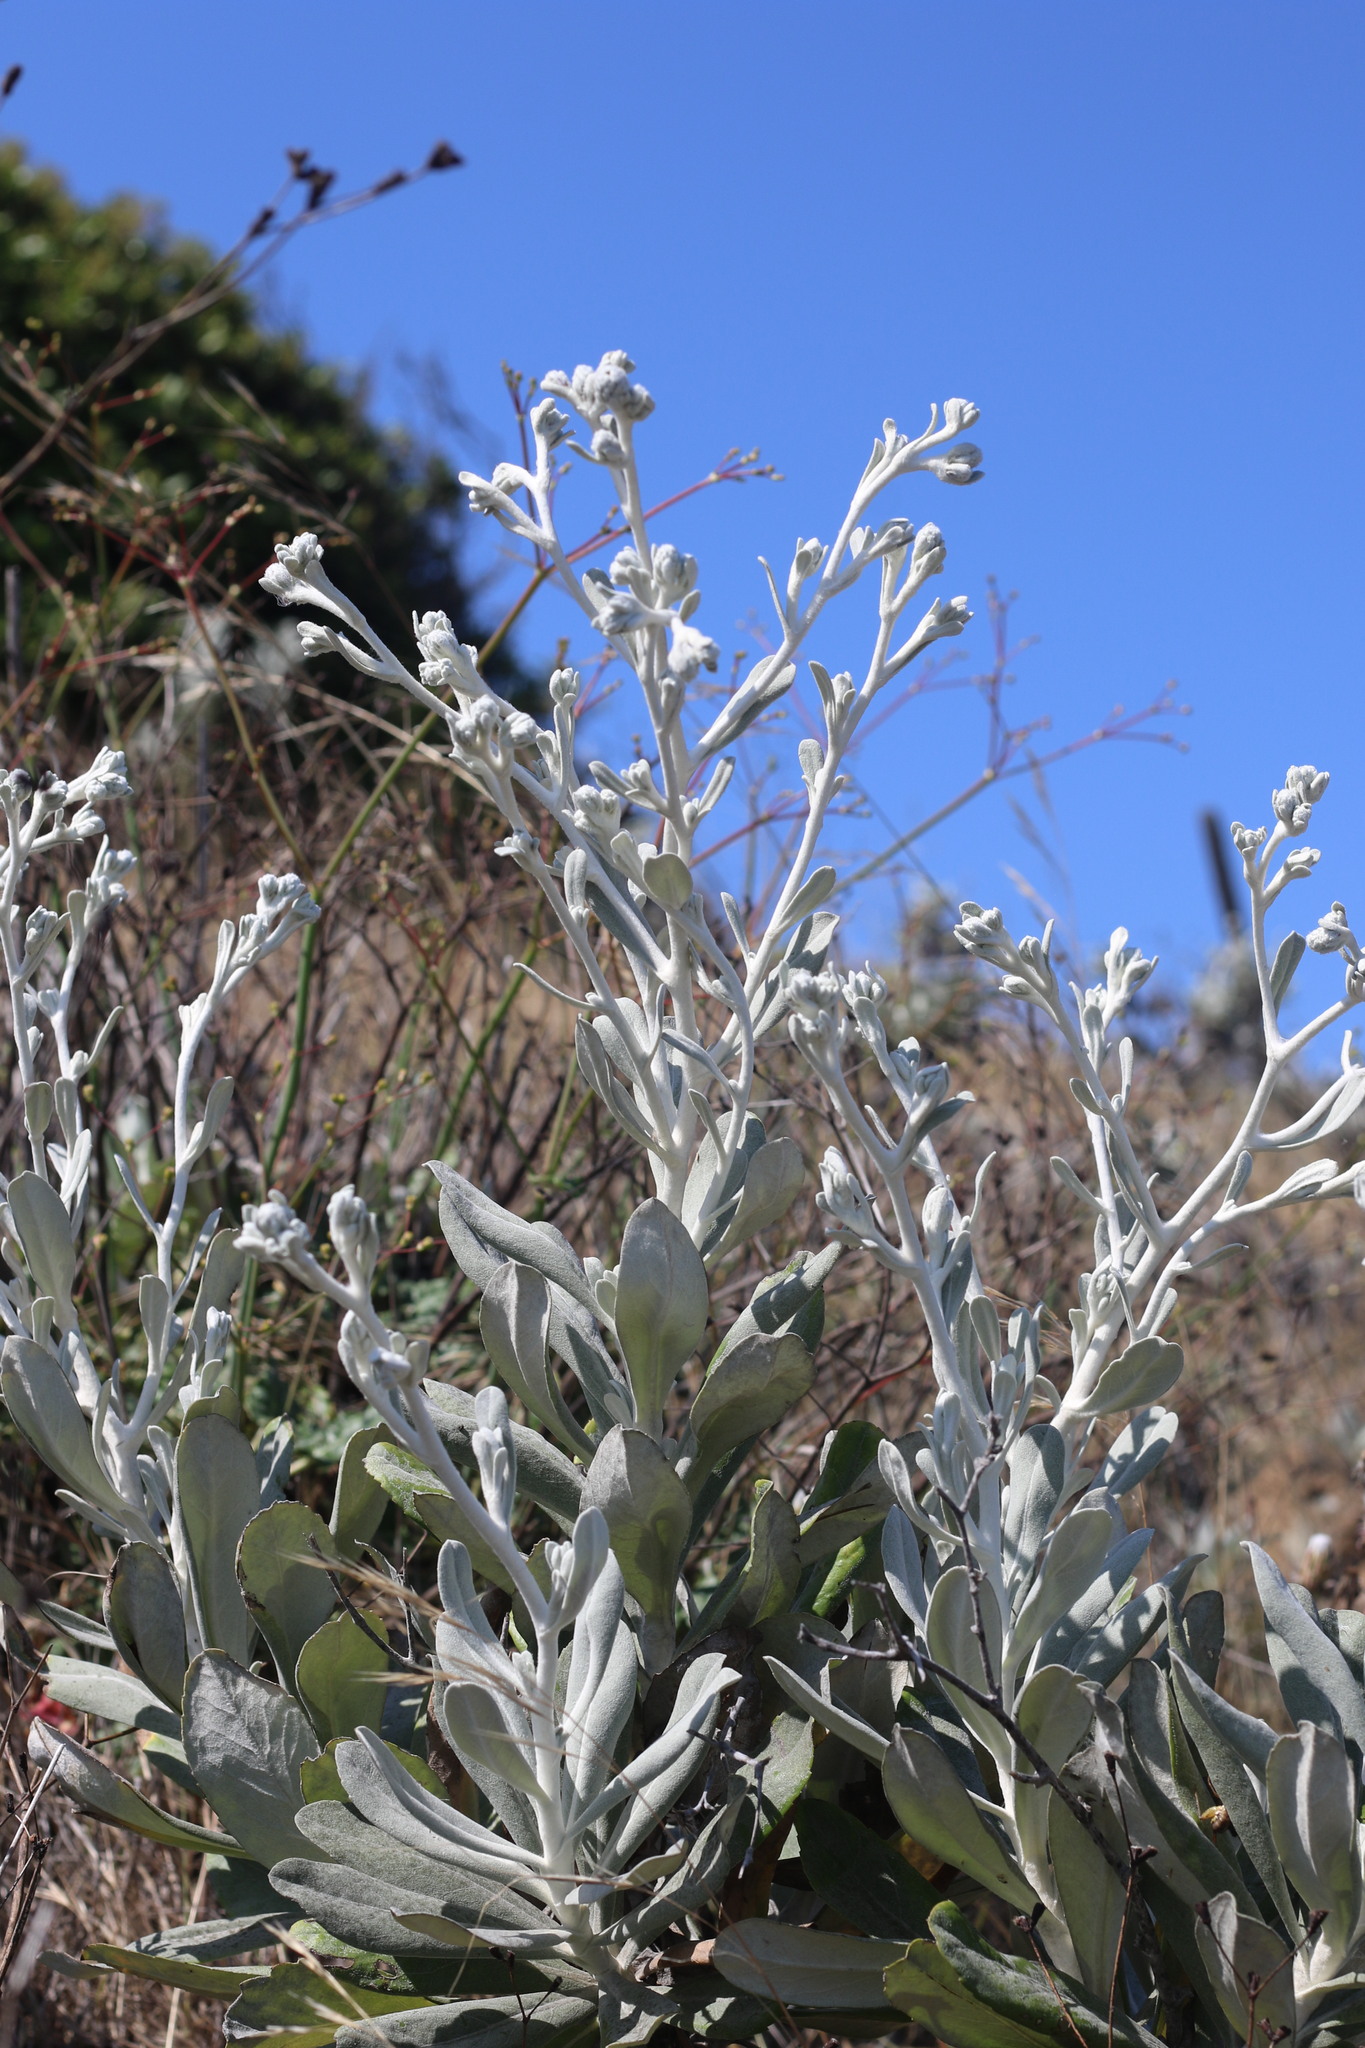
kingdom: Plantae
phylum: Tracheophyta
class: Magnoliopsida
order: Asterales
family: Asteraceae
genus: Hazardia
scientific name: Hazardia detonsa
